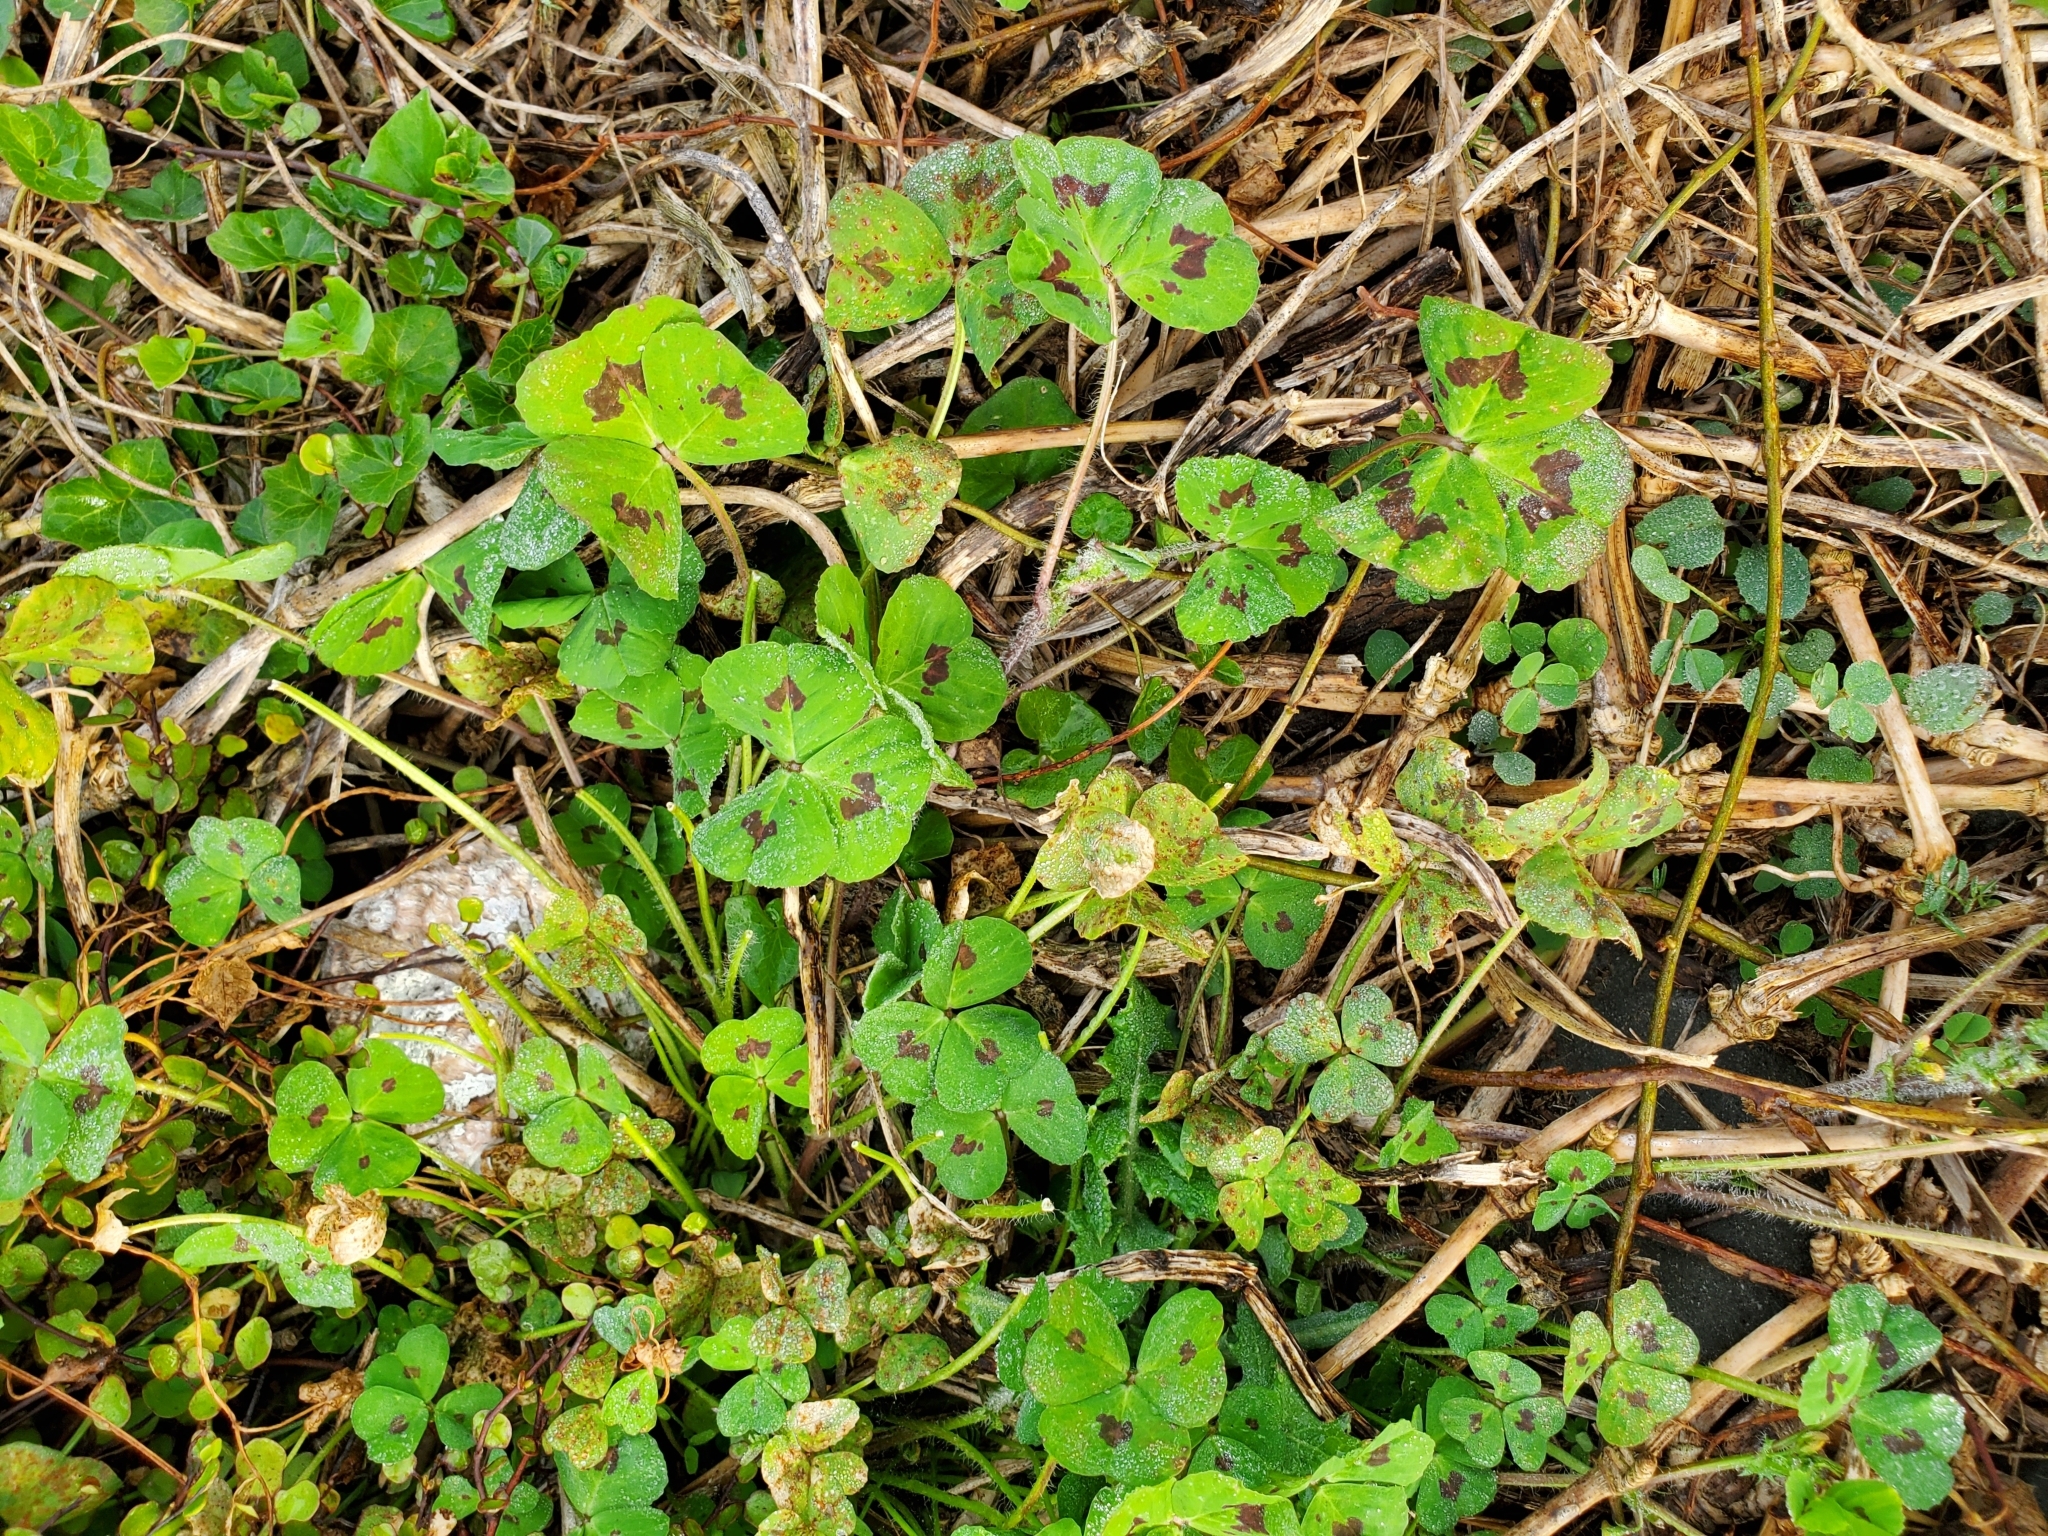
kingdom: Plantae
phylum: Tracheophyta
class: Magnoliopsida
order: Fabales
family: Fabaceae
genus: Medicago
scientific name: Medicago arabica
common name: Spotted medick
